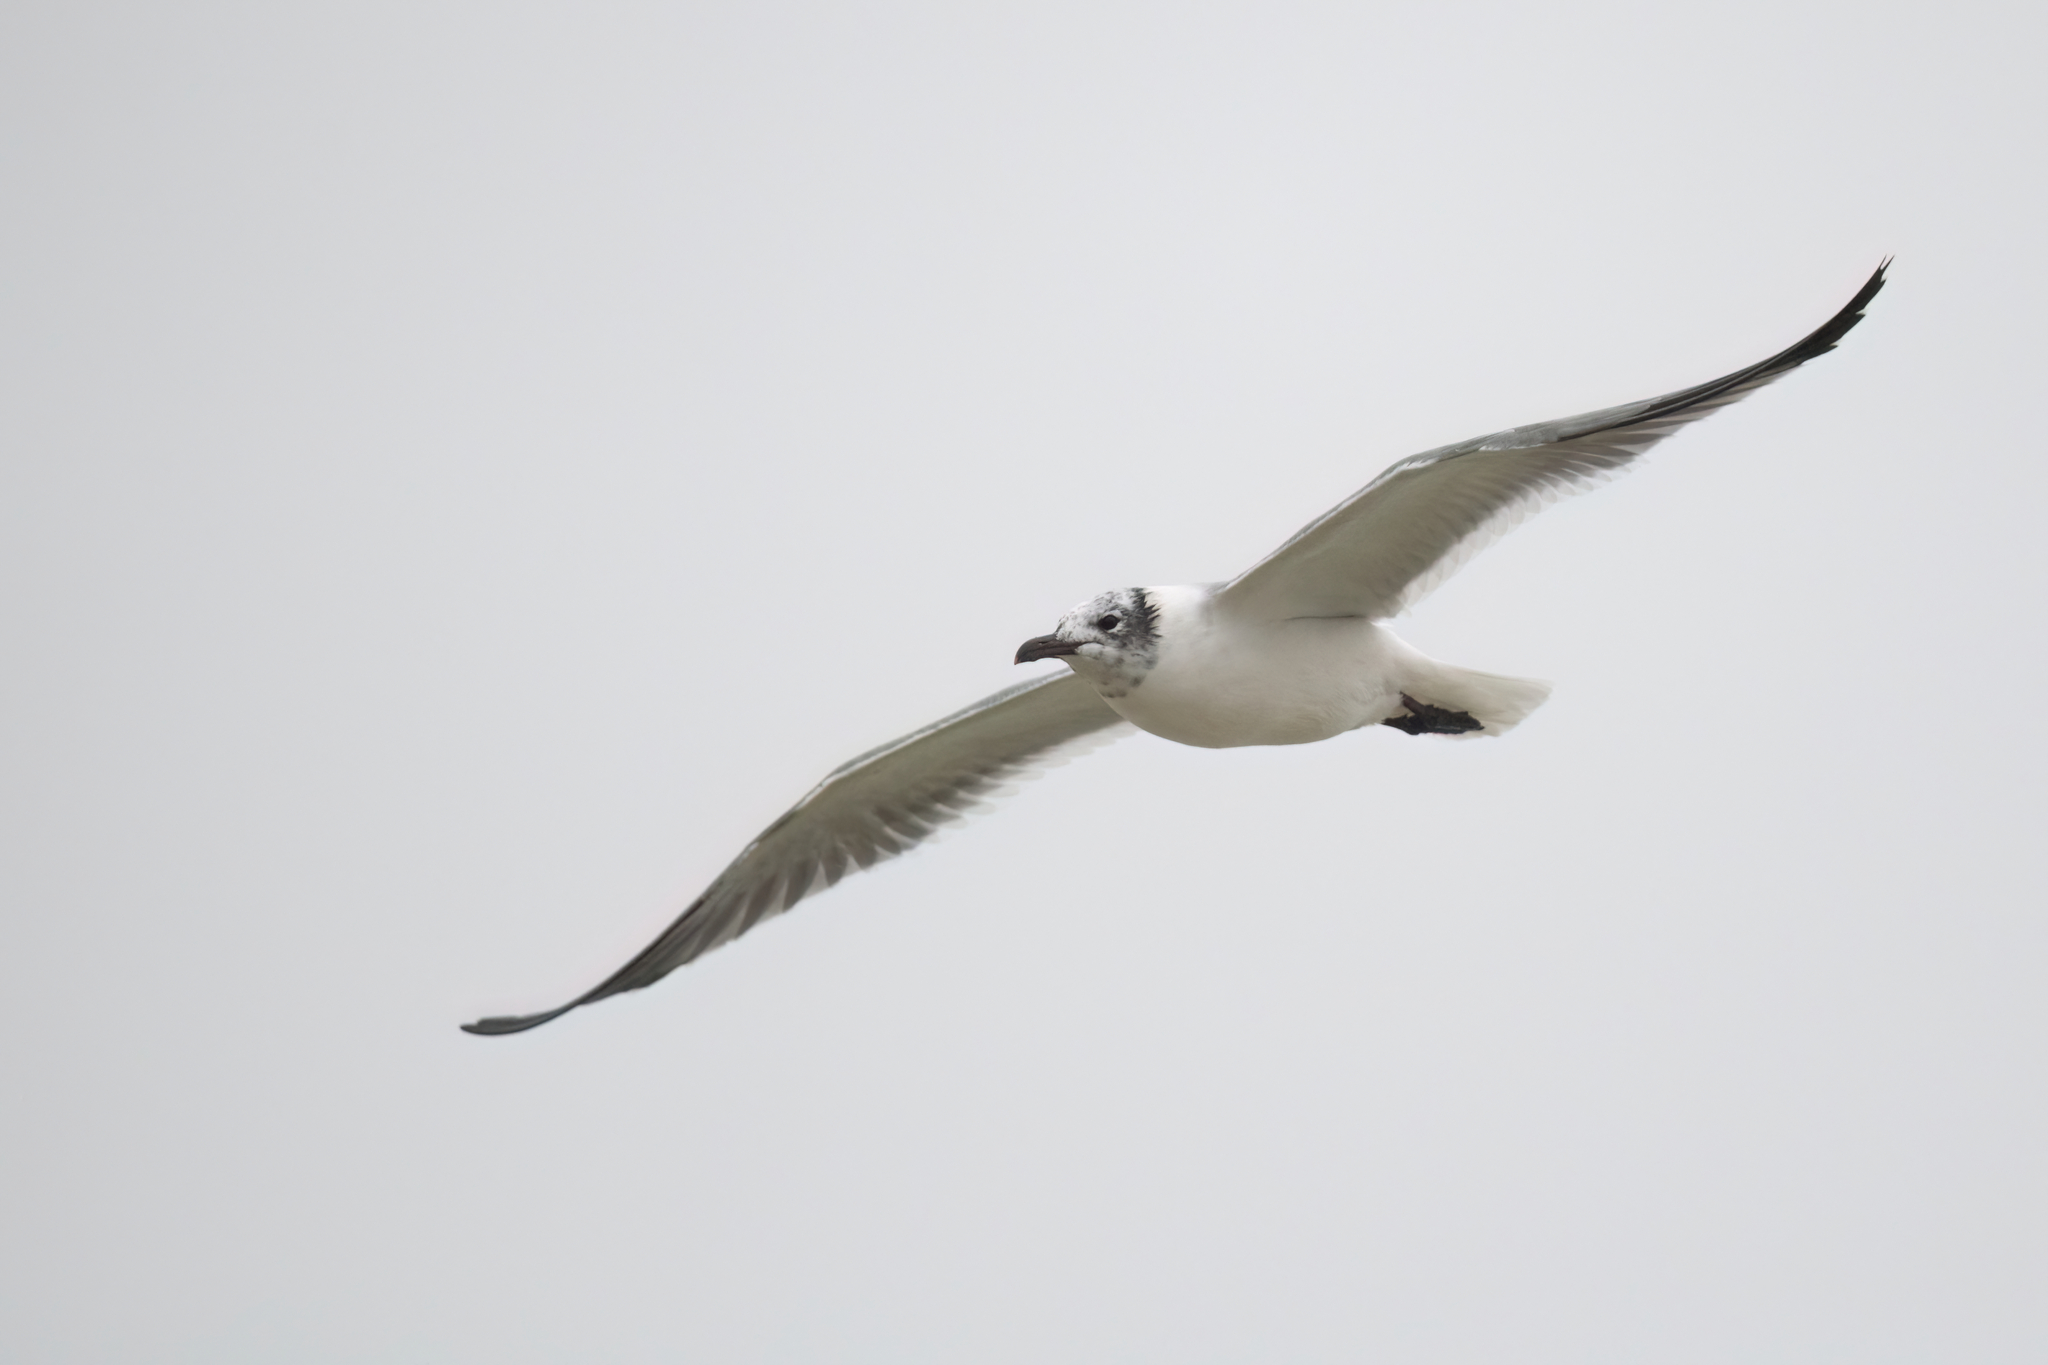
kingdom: Animalia
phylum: Chordata
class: Aves
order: Charadriiformes
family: Laridae
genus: Leucophaeus
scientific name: Leucophaeus atricilla
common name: Laughing gull
